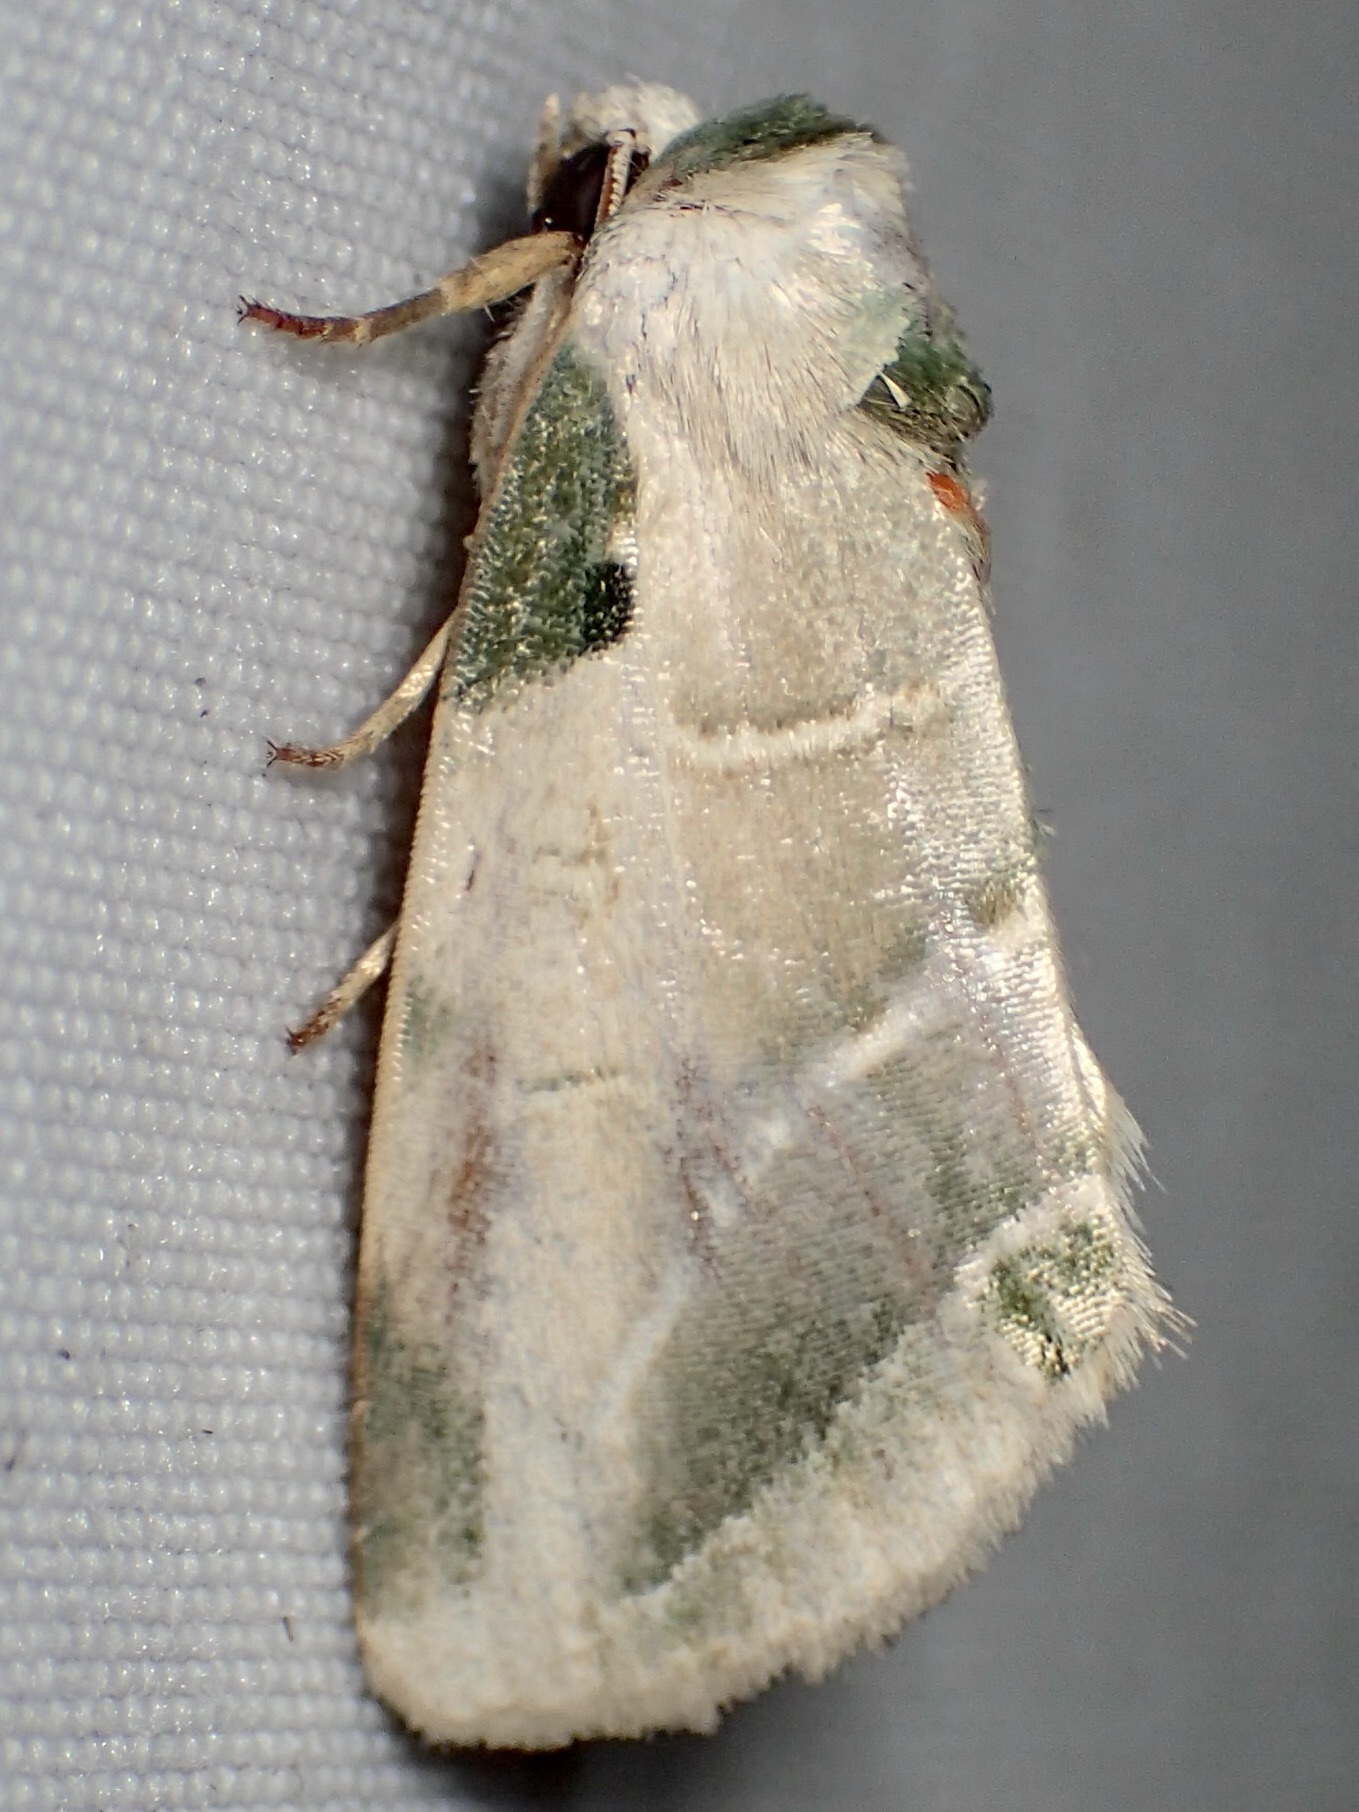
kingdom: Animalia
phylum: Arthropoda
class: Insecta
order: Lepidoptera
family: Noctuidae
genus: Heminocloa
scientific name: Heminocloa mirabilis
